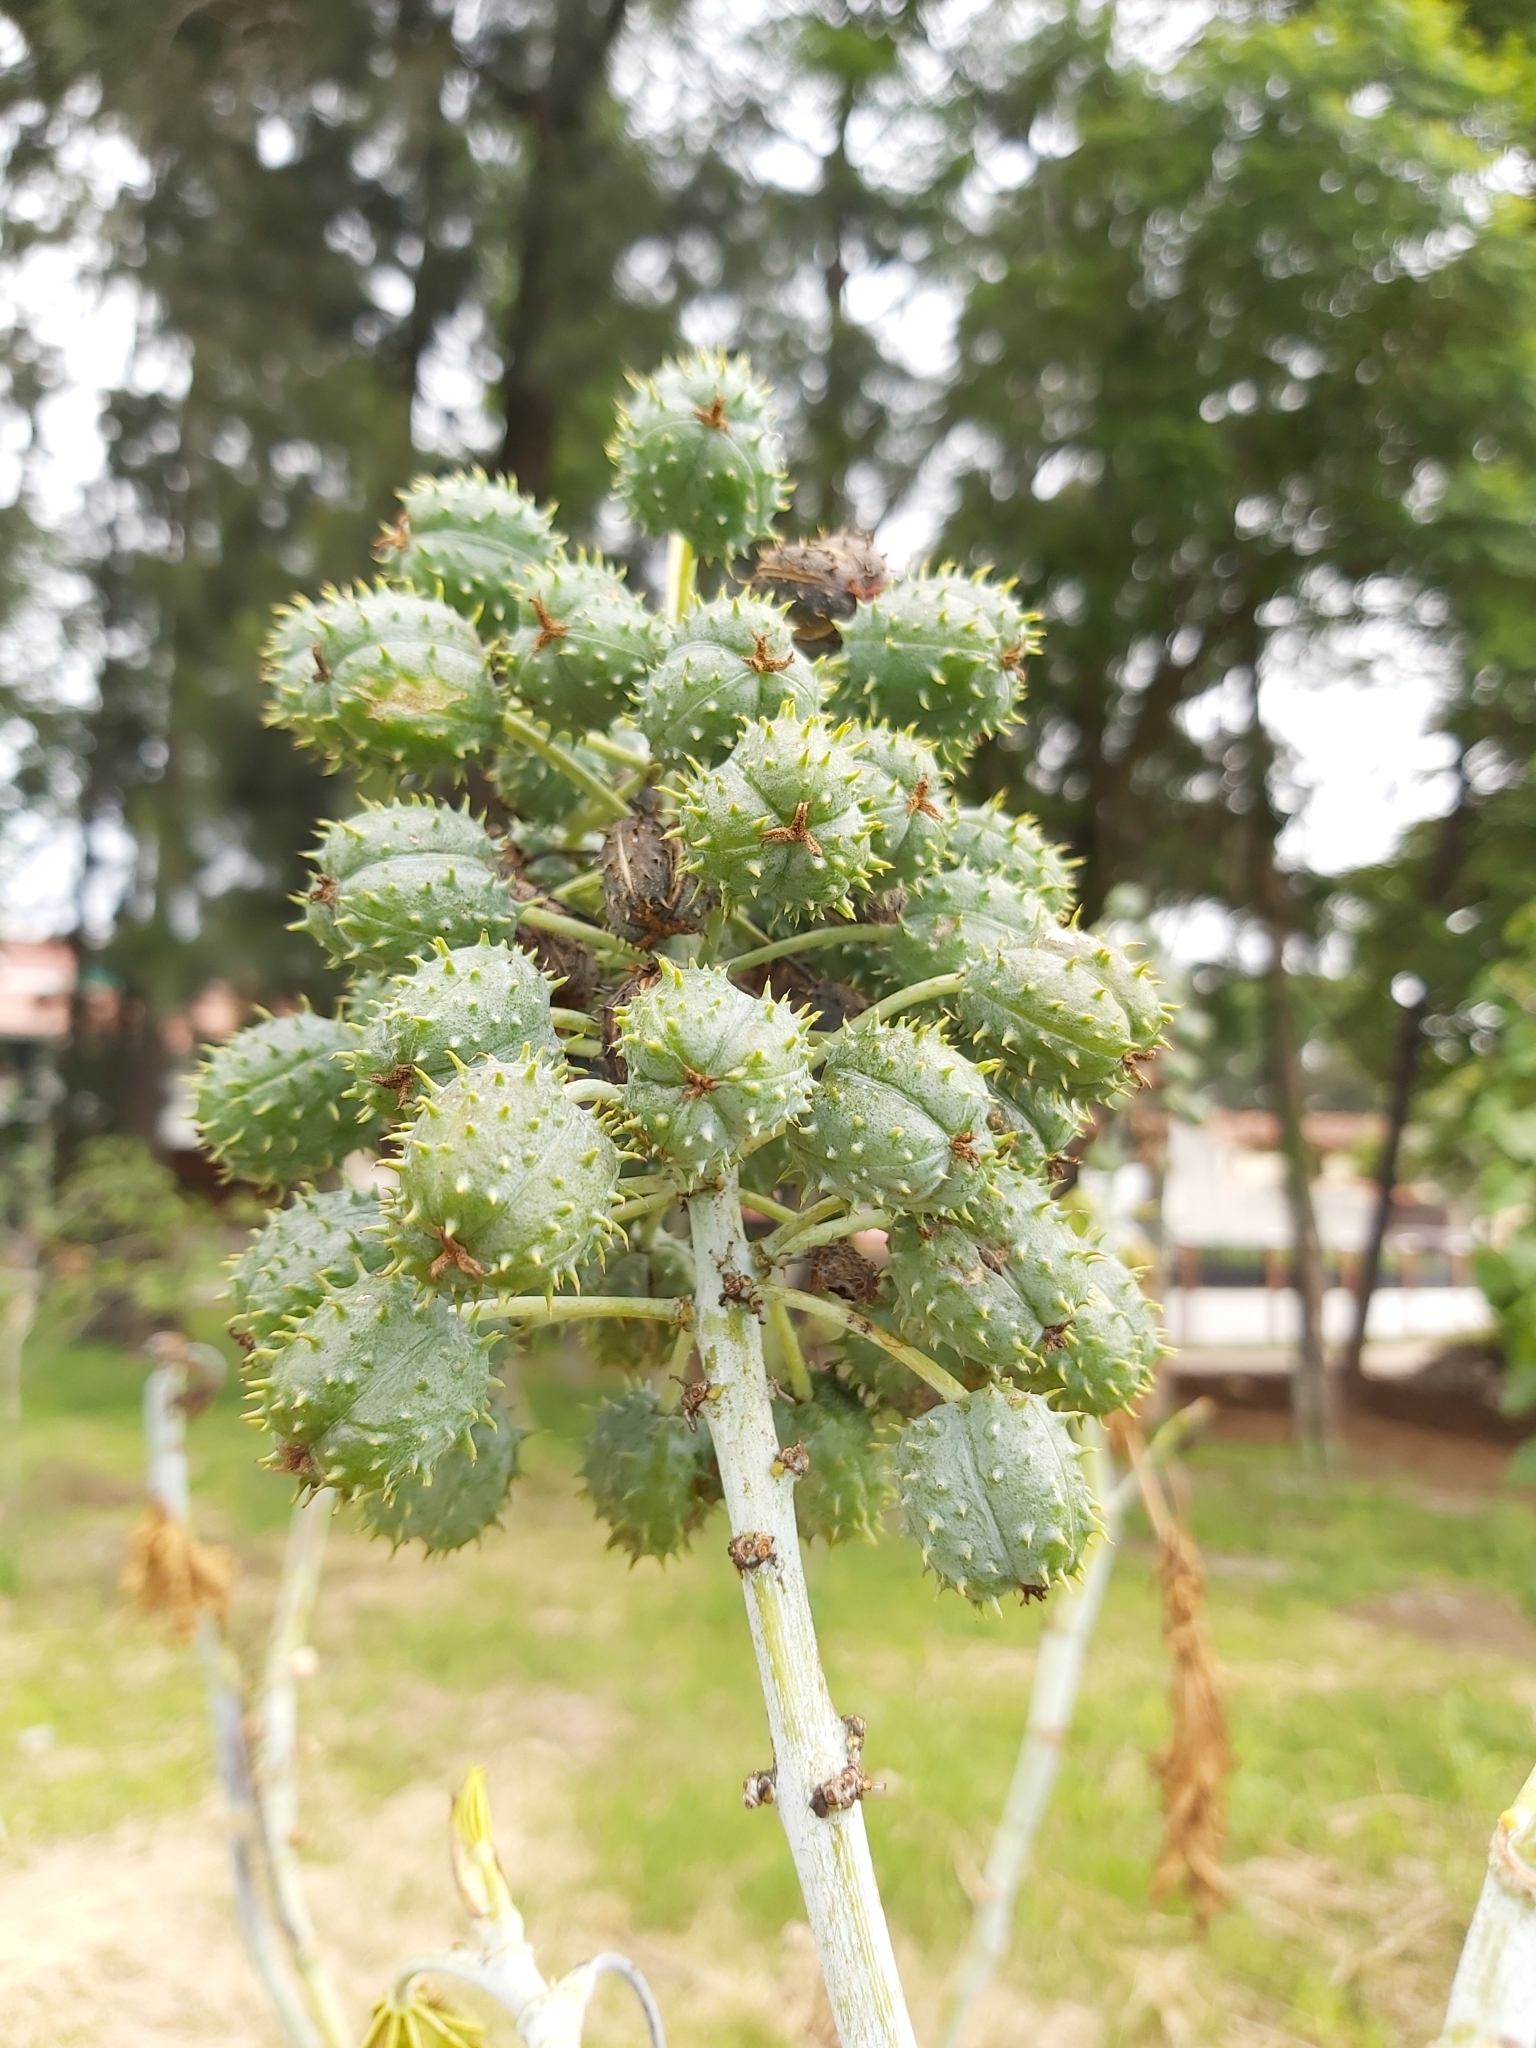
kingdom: Plantae
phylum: Tracheophyta
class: Magnoliopsida
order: Malpighiales
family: Euphorbiaceae
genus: Ricinus
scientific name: Ricinus communis
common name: Castor-oil-plant
